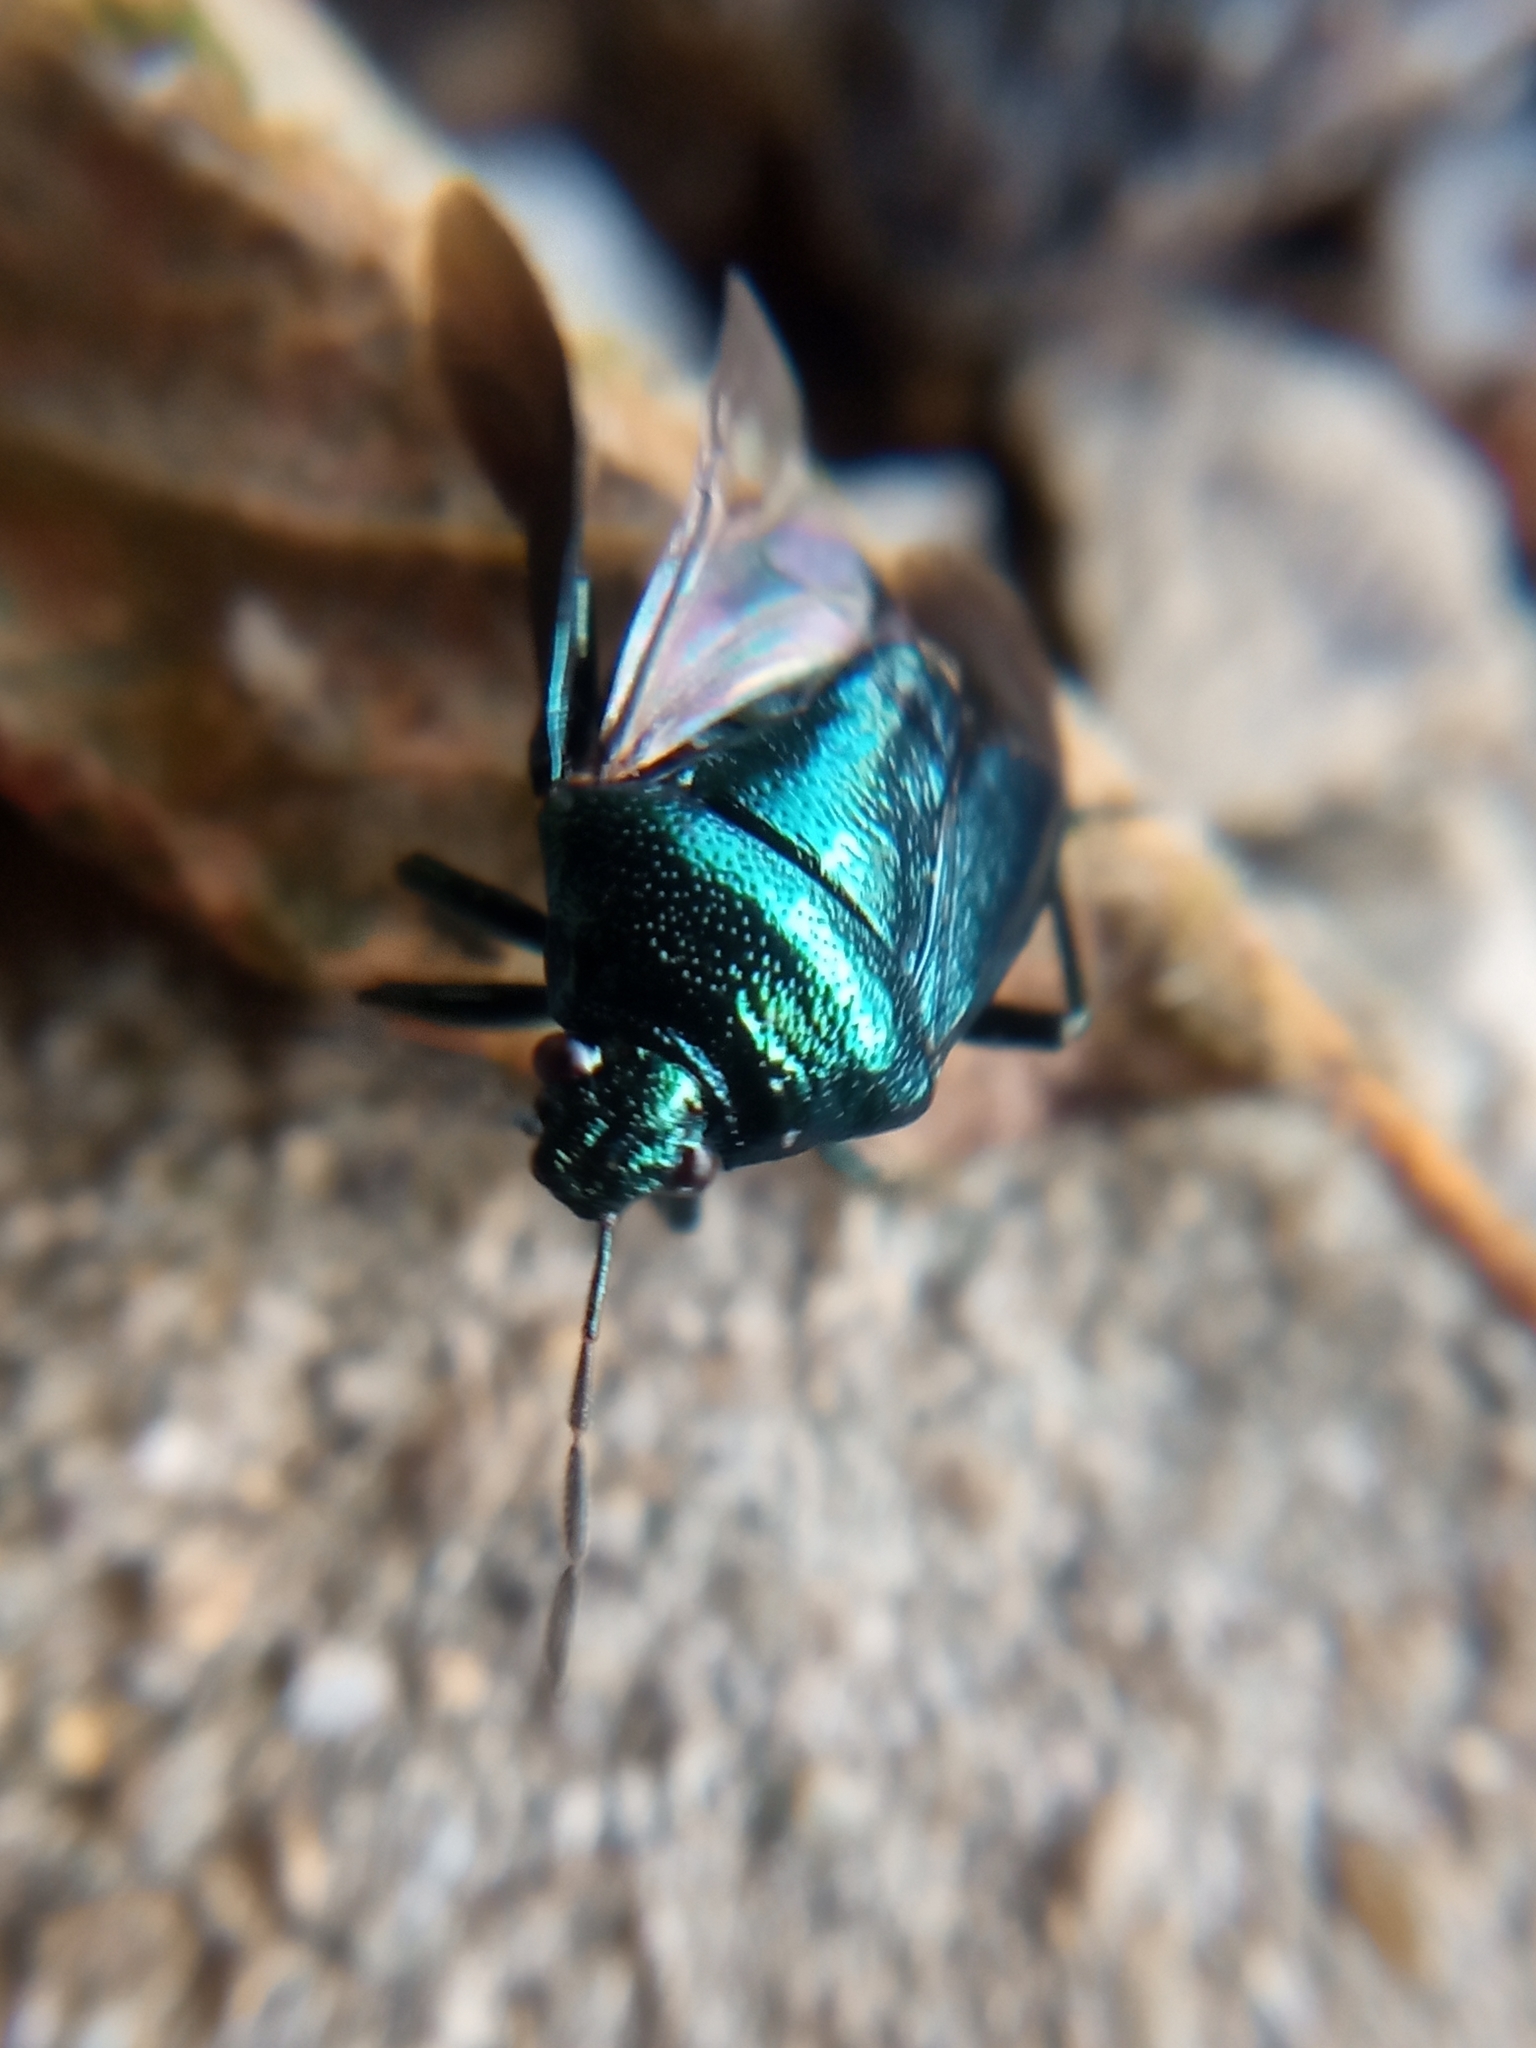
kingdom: Animalia
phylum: Arthropoda
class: Insecta
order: Hemiptera
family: Pentatomidae
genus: Zicrona
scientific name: Zicrona caerulea
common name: Blue shieldbug
